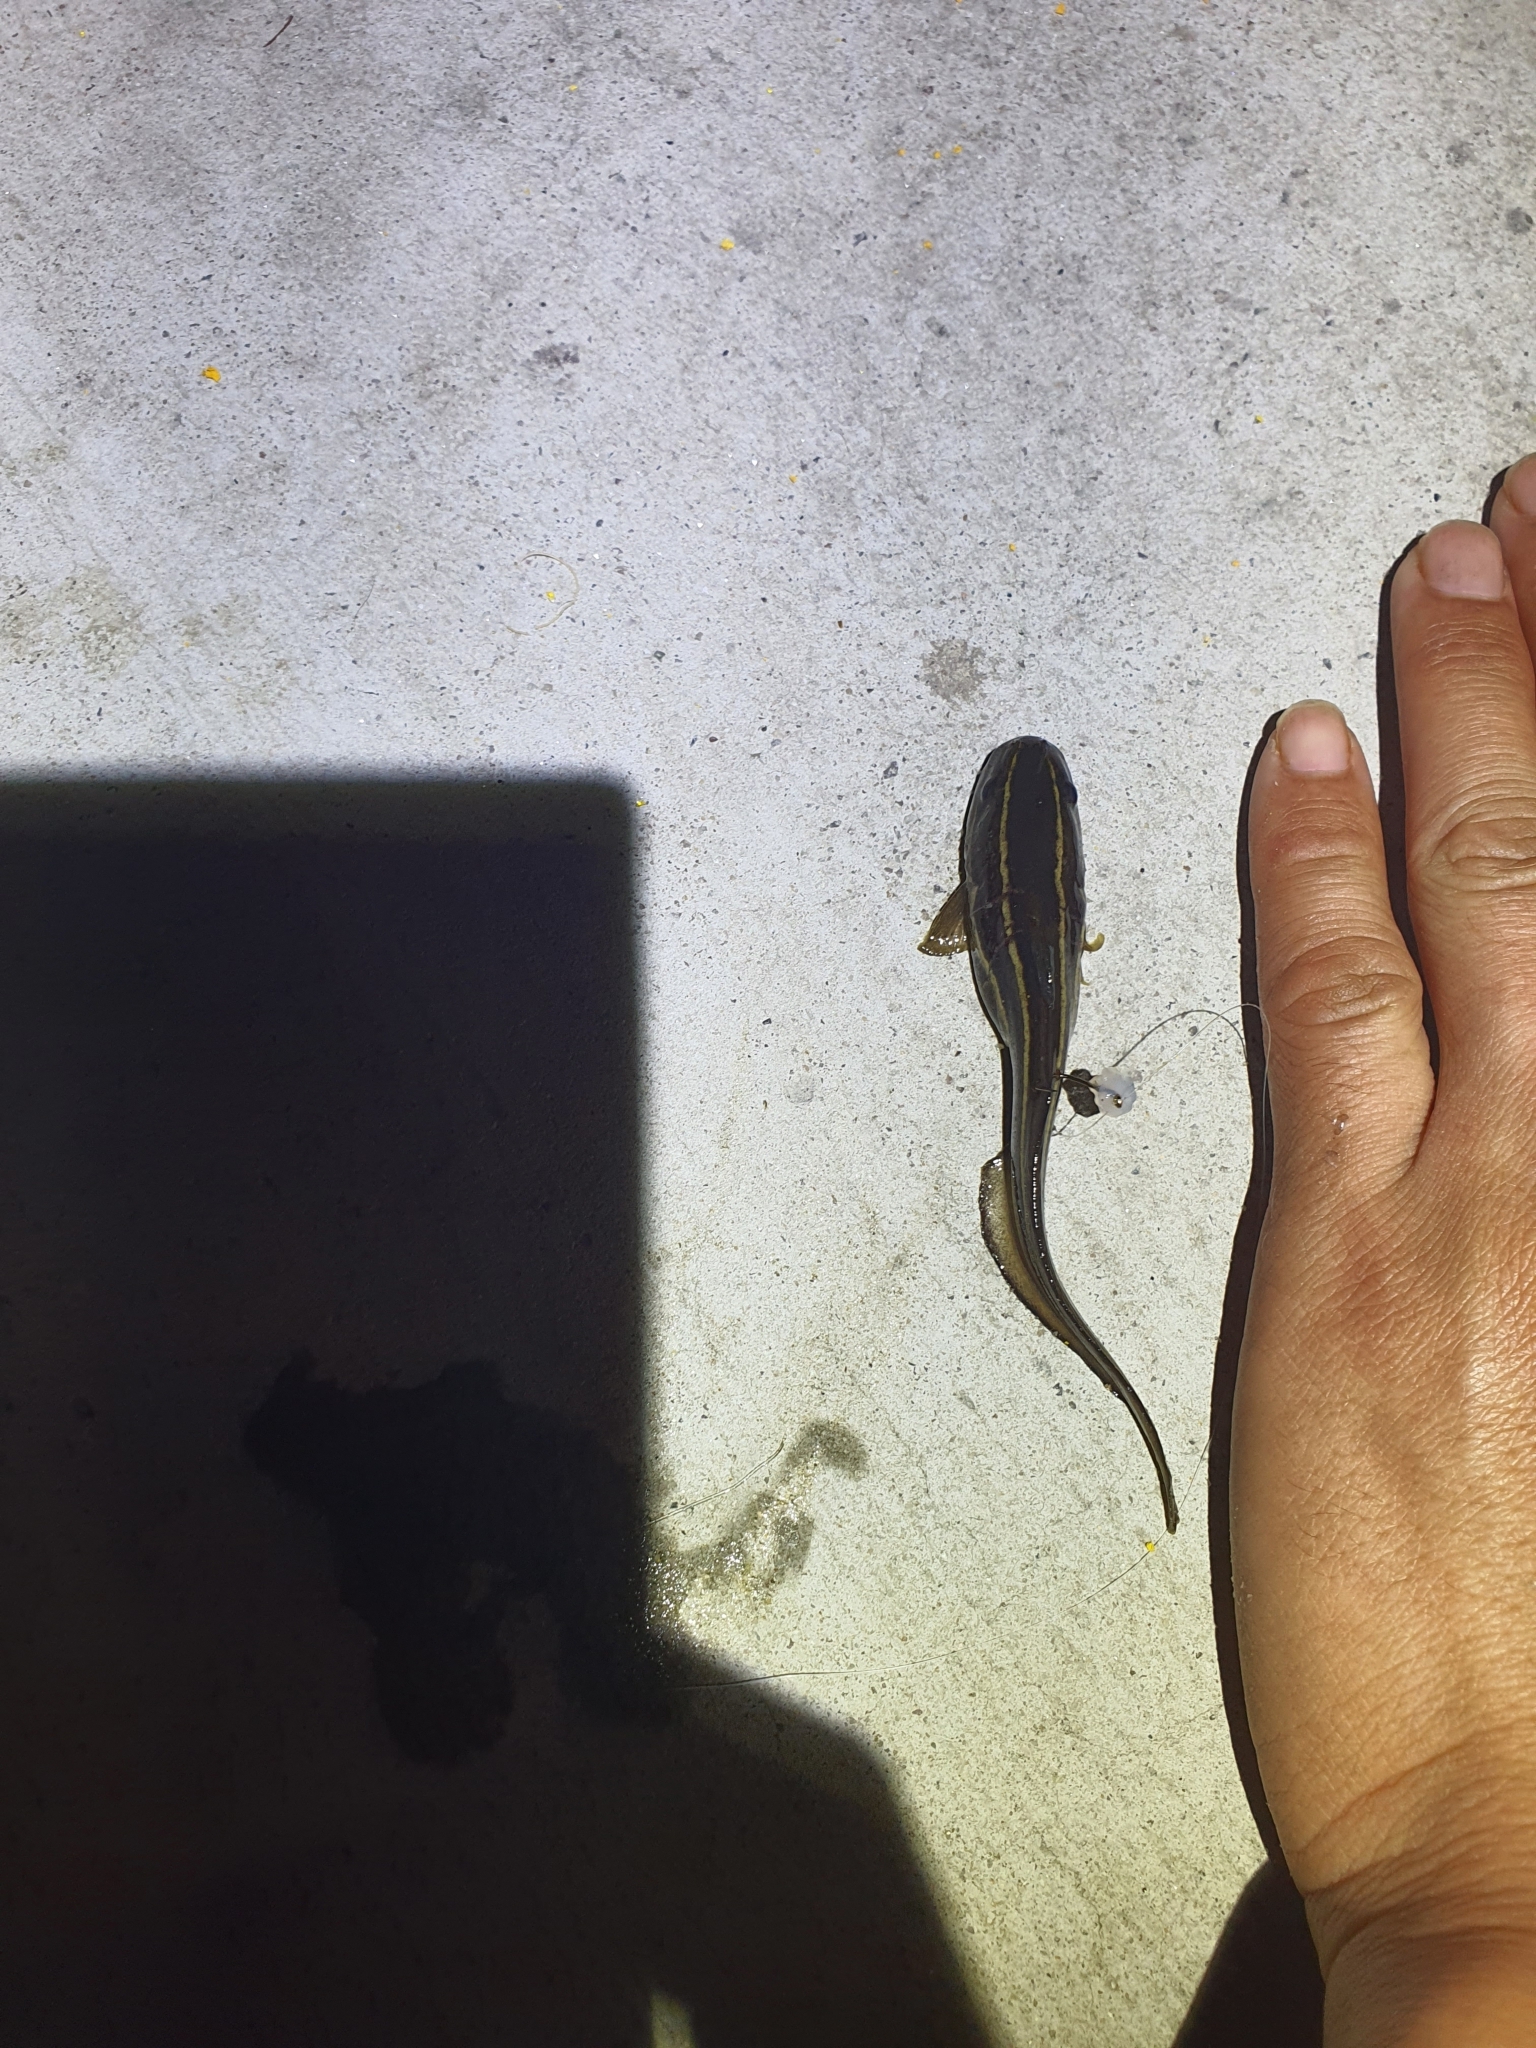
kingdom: Animalia
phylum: Chordata
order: Siluriformes
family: Plotosidae
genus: Plotosus
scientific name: Plotosus lineatus
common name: Striped eel catfish
